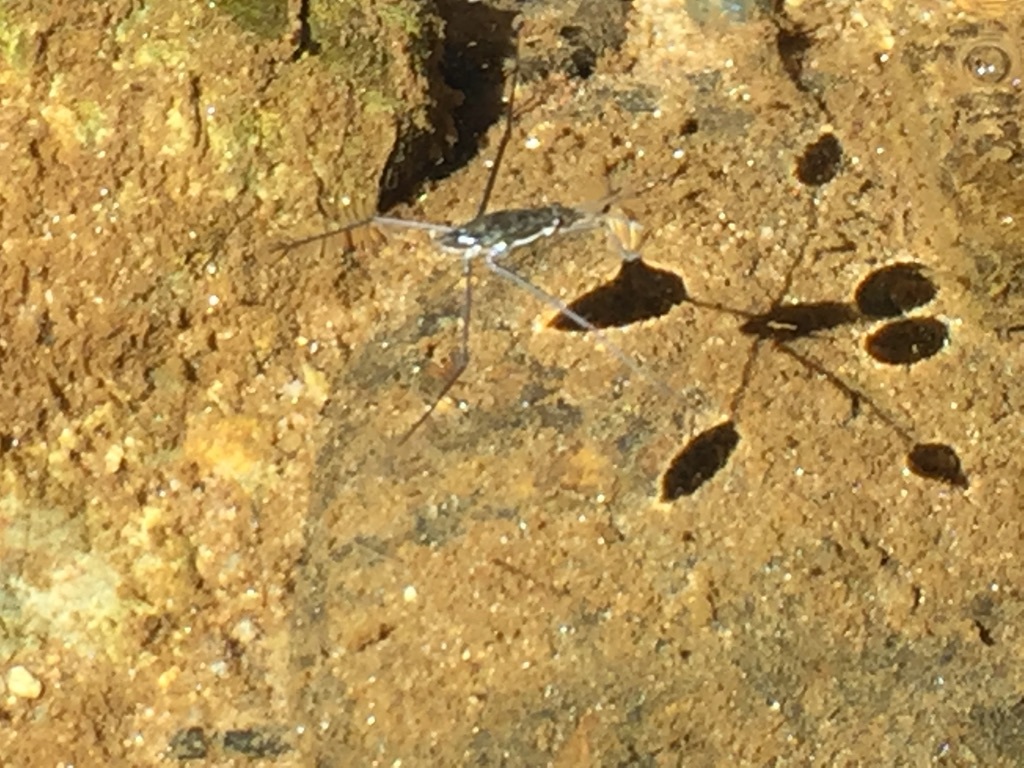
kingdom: Animalia
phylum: Arthropoda
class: Insecta
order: Hemiptera
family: Gerridae
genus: Aquarius
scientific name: Aquarius remigis
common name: Common water strider
